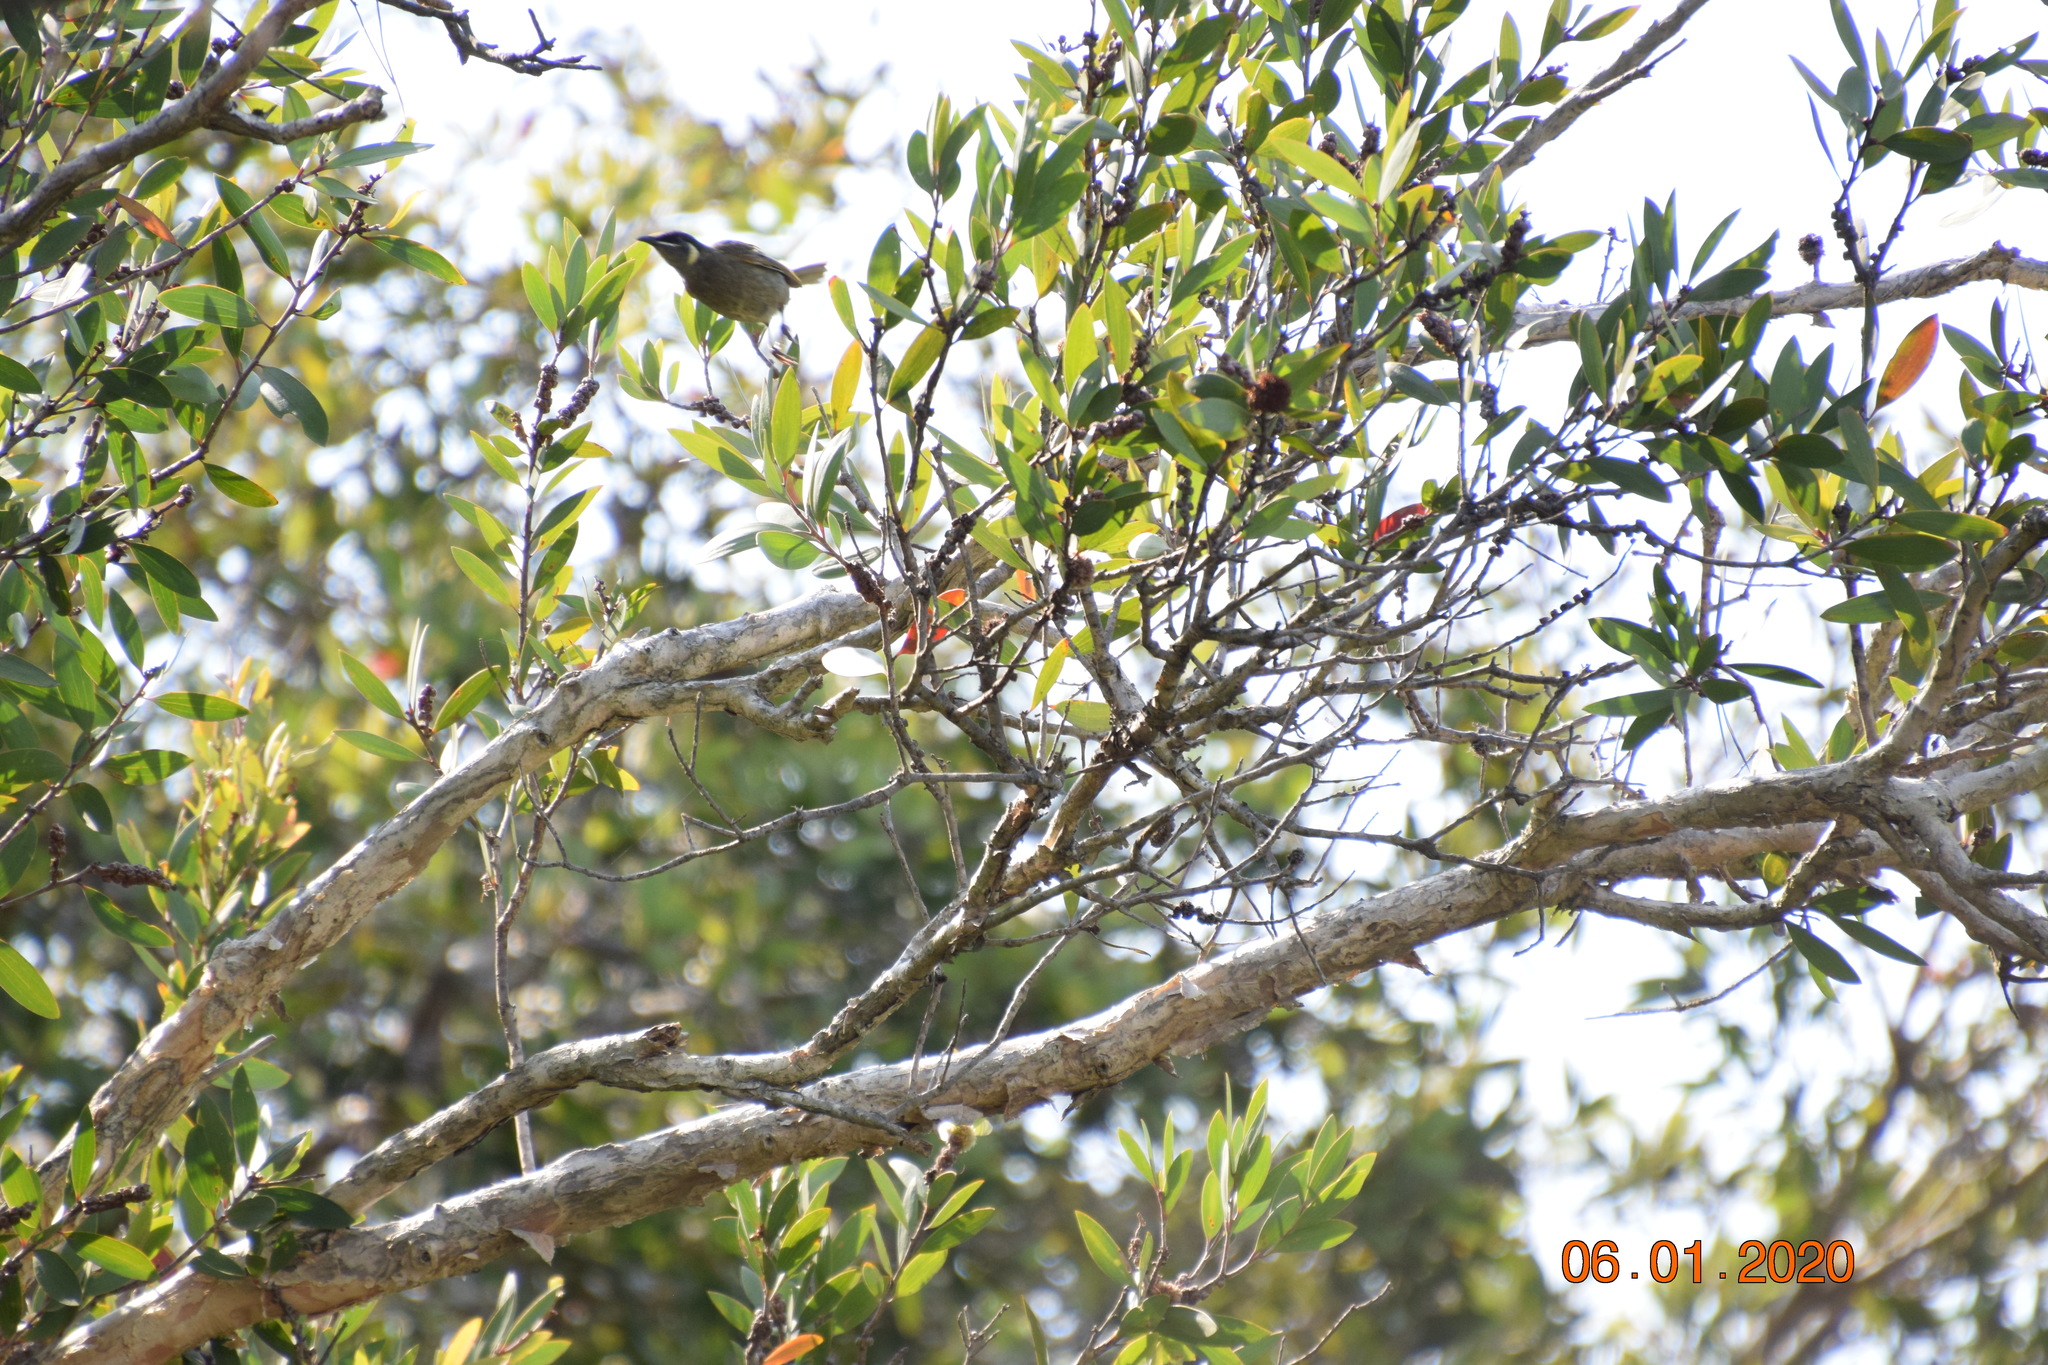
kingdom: Animalia
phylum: Chordata
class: Aves
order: Passeriformes
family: Meliphagidae
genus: Meliphaga
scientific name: Meliphaga lewinii
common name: Lewin's honeyeater
